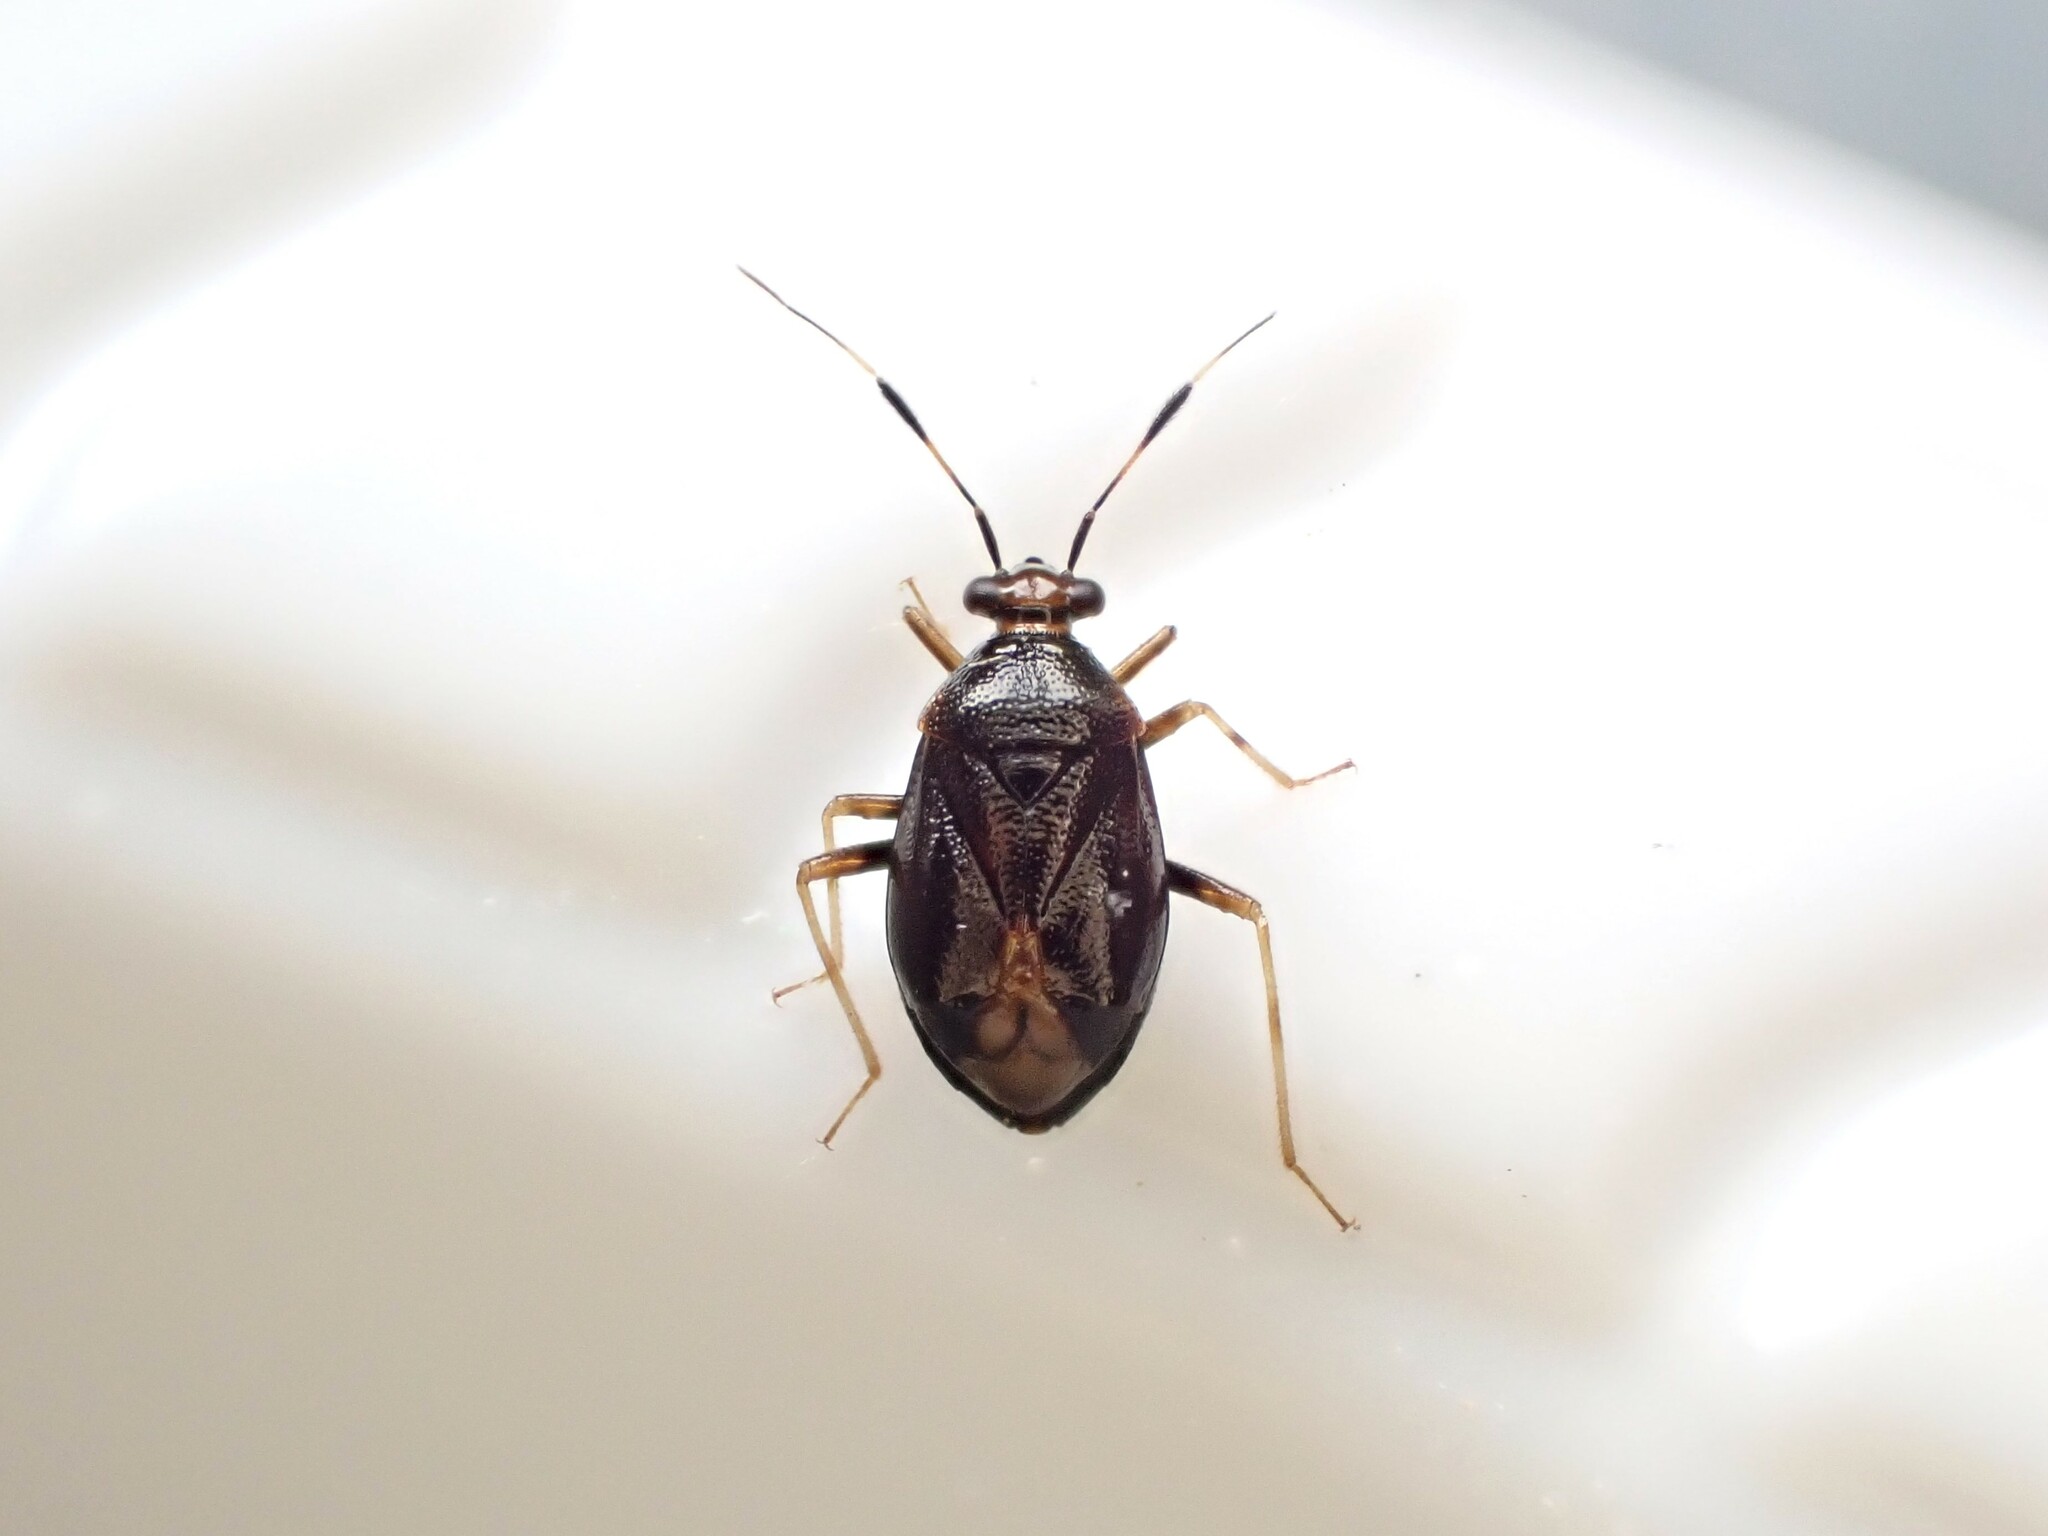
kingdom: Animalia
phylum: Arthropoda
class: Insecta
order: Hemiptera
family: Miridae
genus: Deraeocoris
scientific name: Deraeocoris maoricus
